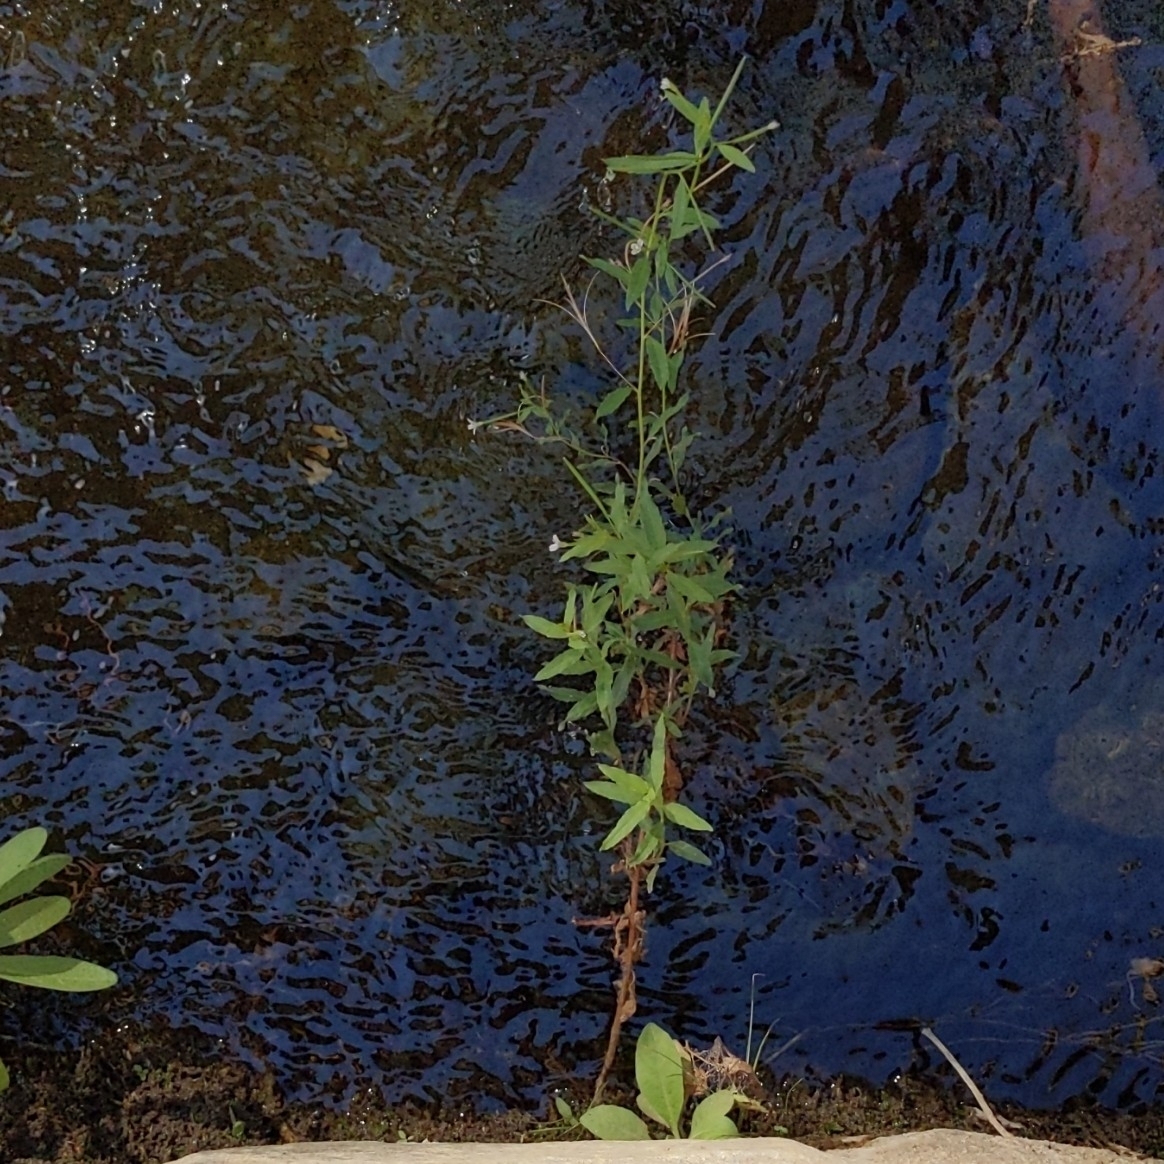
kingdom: Plantae
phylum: Tracheophyta
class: Magnoliopsida
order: Myrtales
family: Onagraceae
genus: Epilobium
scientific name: Epilobium ciliatum
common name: American willowherb
